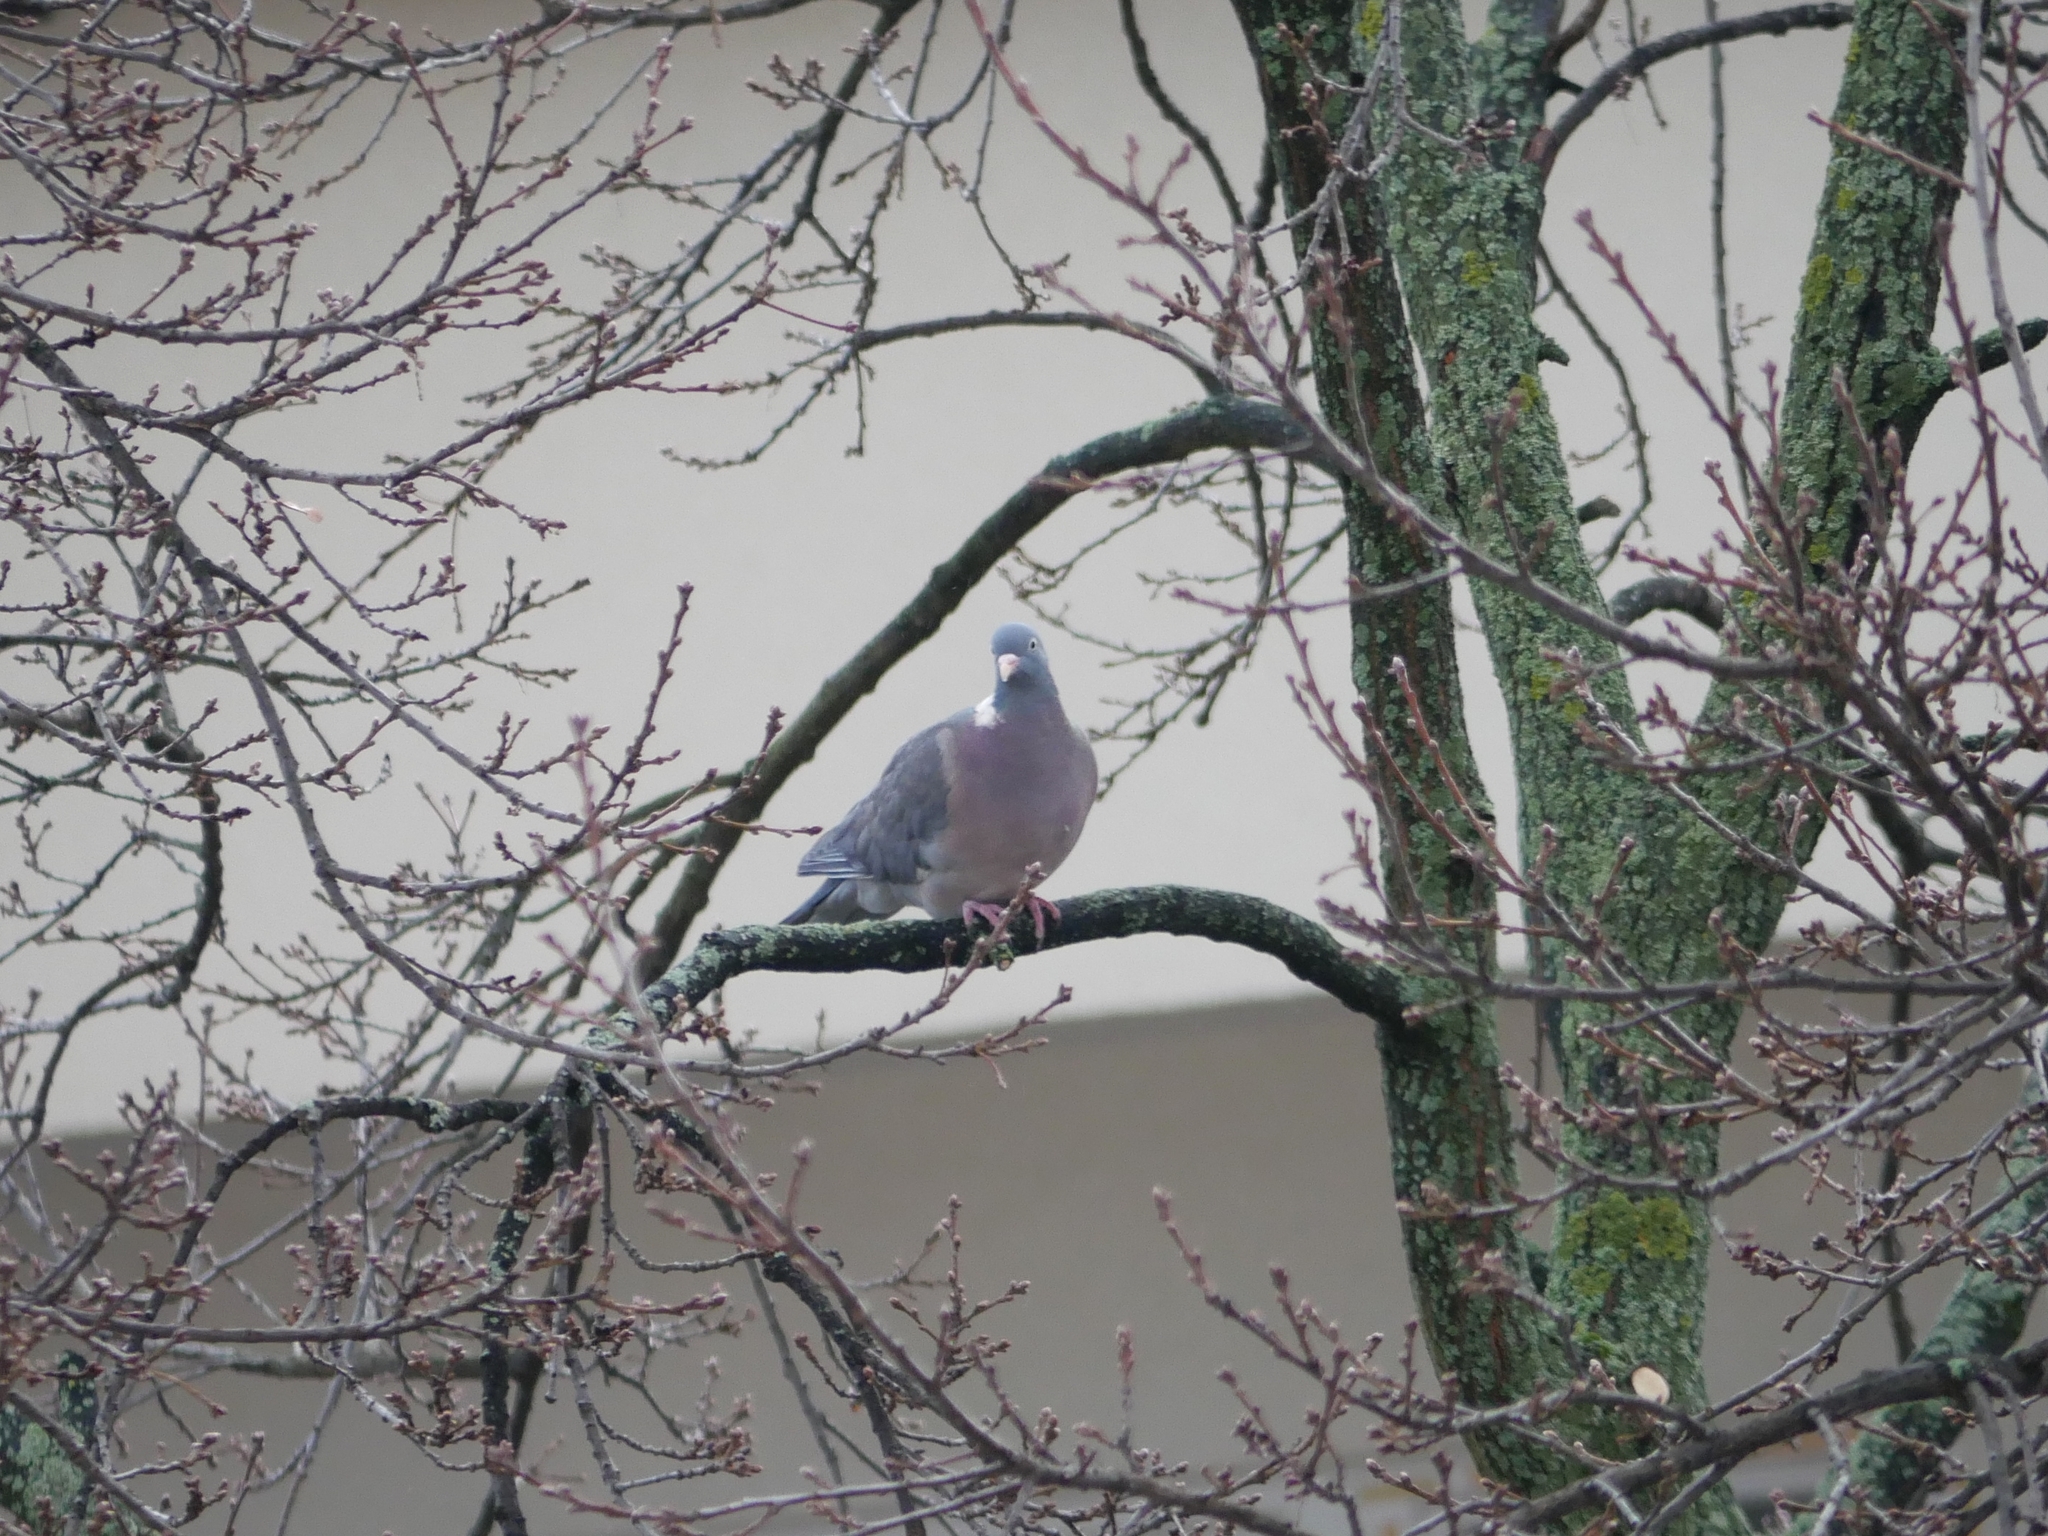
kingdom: Animalia
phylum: Chordata
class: Aves
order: Columbiformes
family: Columbidae
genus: Columba
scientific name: Columba palumbus
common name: Common wood pigeon
